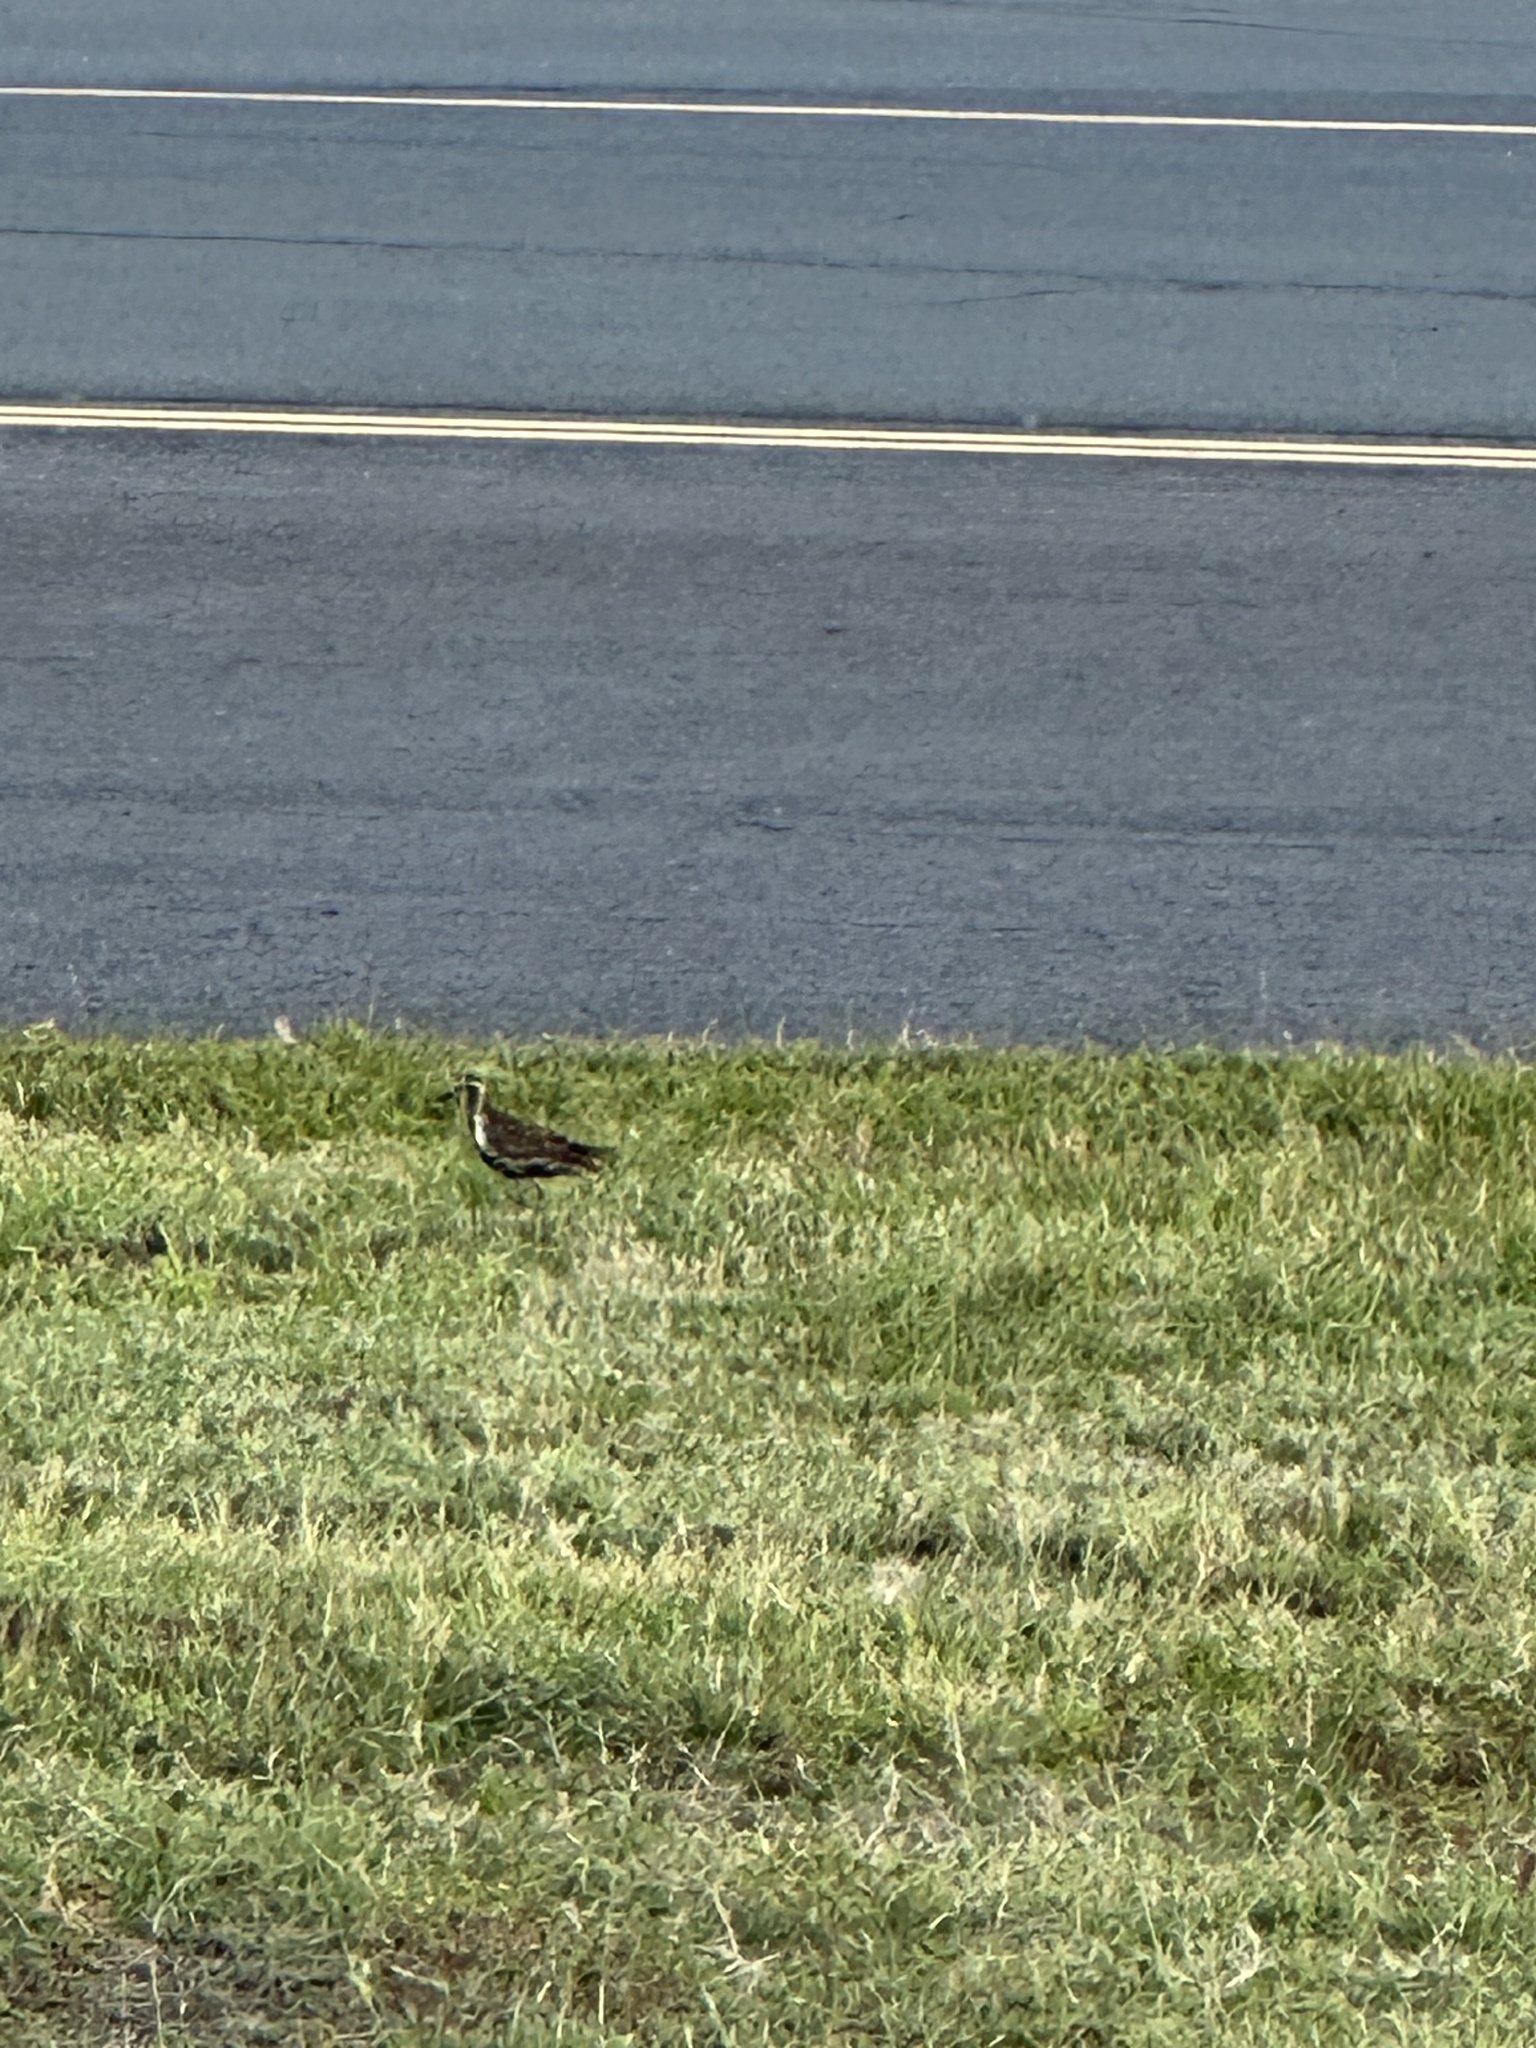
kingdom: Animalia
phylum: Chordata
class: Aves
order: Charadriiformes
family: Charadriidae
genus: Pluvialis
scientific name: Pluvialis fulva
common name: Pacific golden plover
